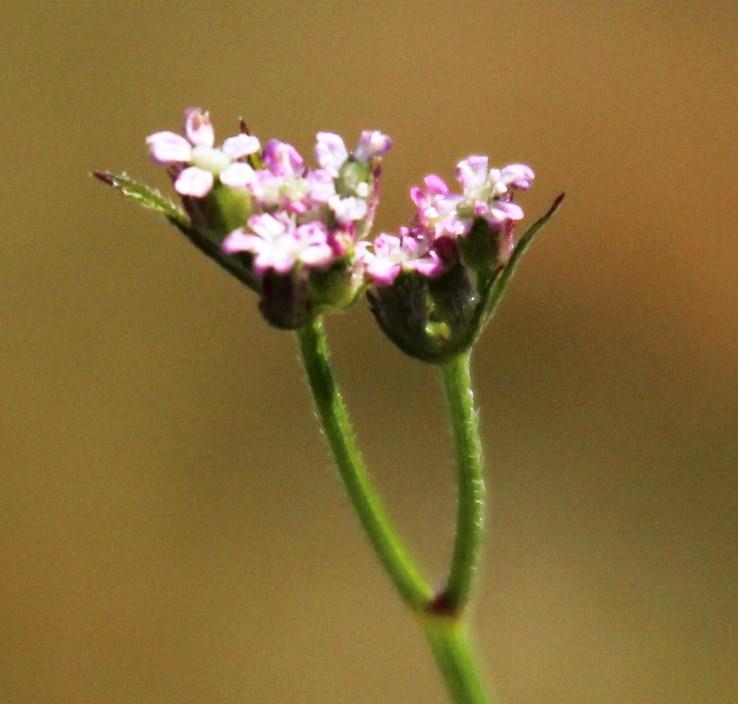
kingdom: Plantae
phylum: Tracheophyta
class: Magnoliopsida
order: Apiales
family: Apiaceae
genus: Torilis
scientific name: Torilis africana
